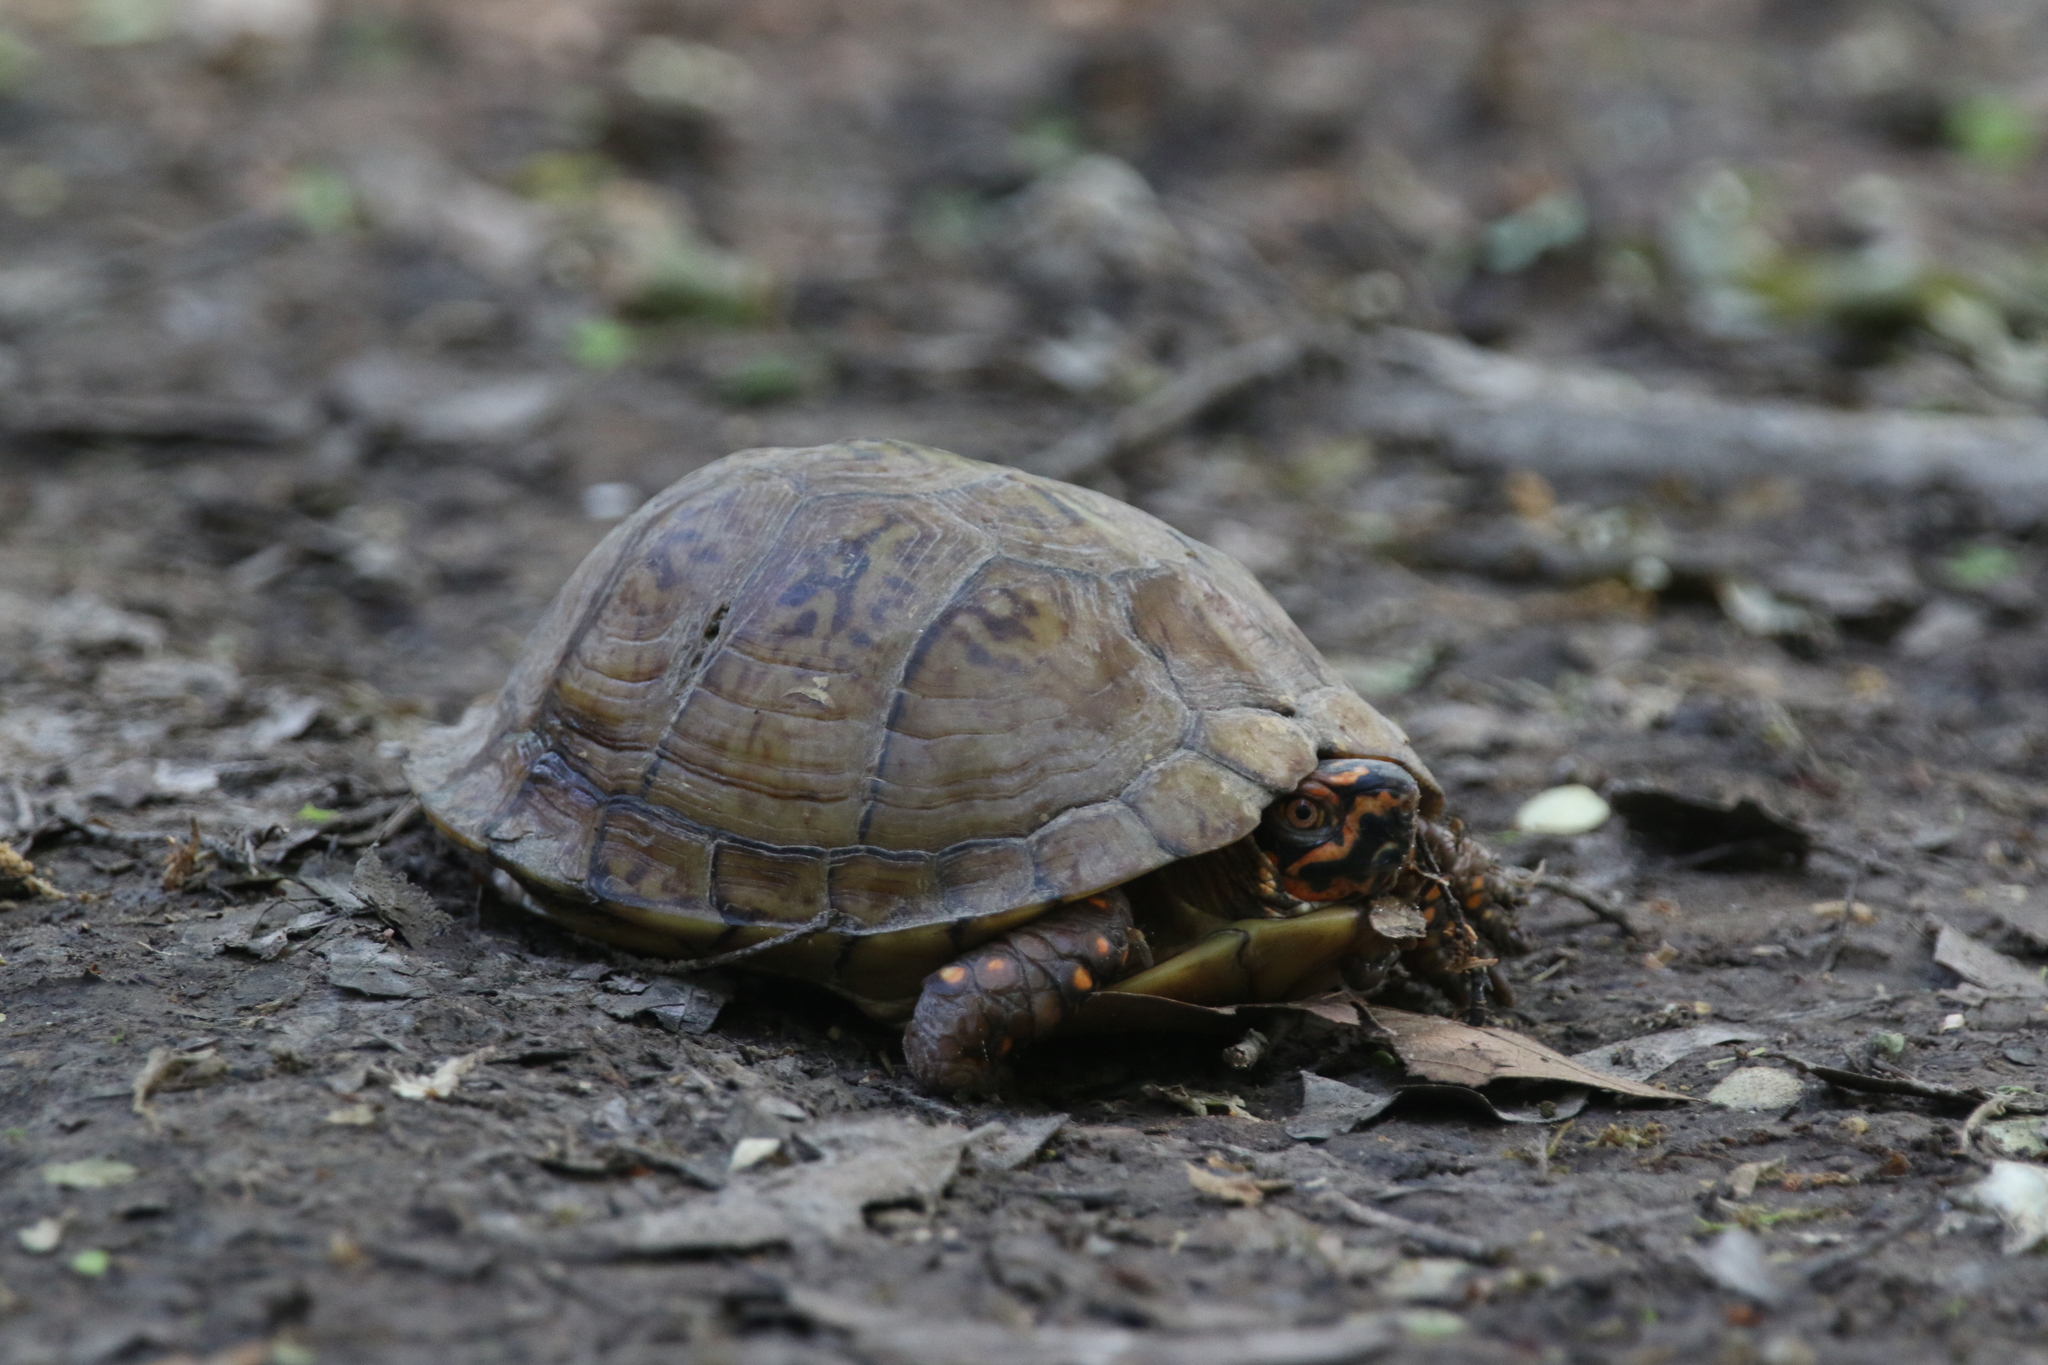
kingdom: Animalia
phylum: Chordata
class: Testudines
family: Emydidae
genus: Terrapene
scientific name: Terrapene carolina
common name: Common box turtle
